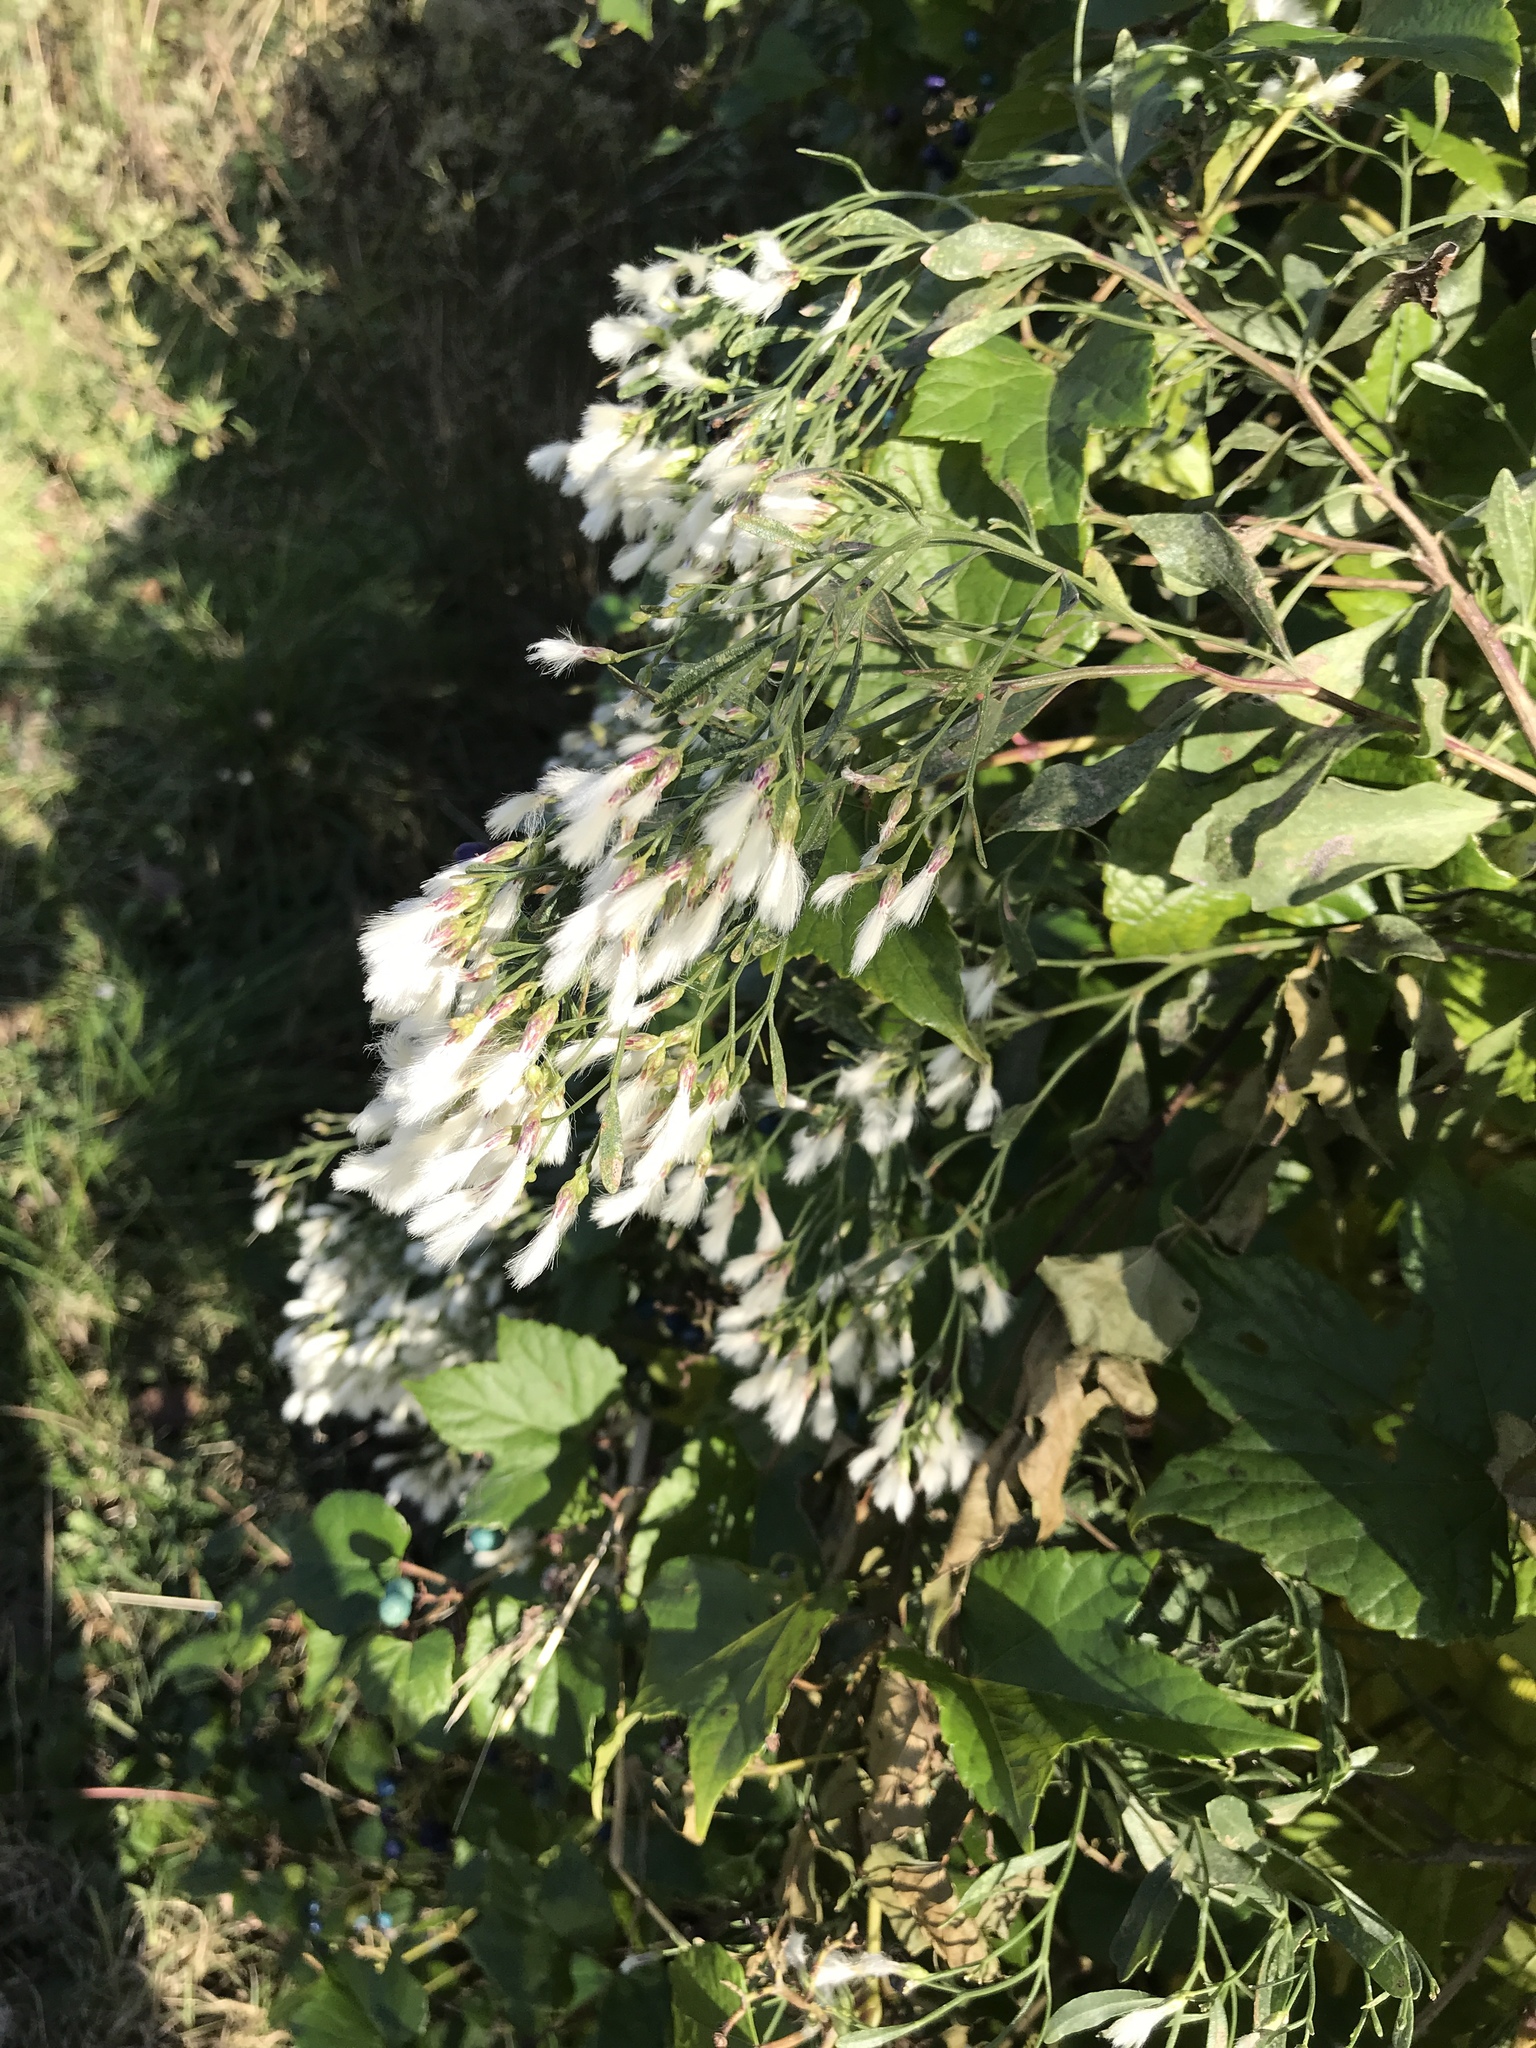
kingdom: Plantae
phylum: Tracheophyta
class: Magnoliopsida
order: Asterales
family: Asteraceae
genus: Baccharis
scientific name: Baccharis halimifolia
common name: Eastern baccharis
